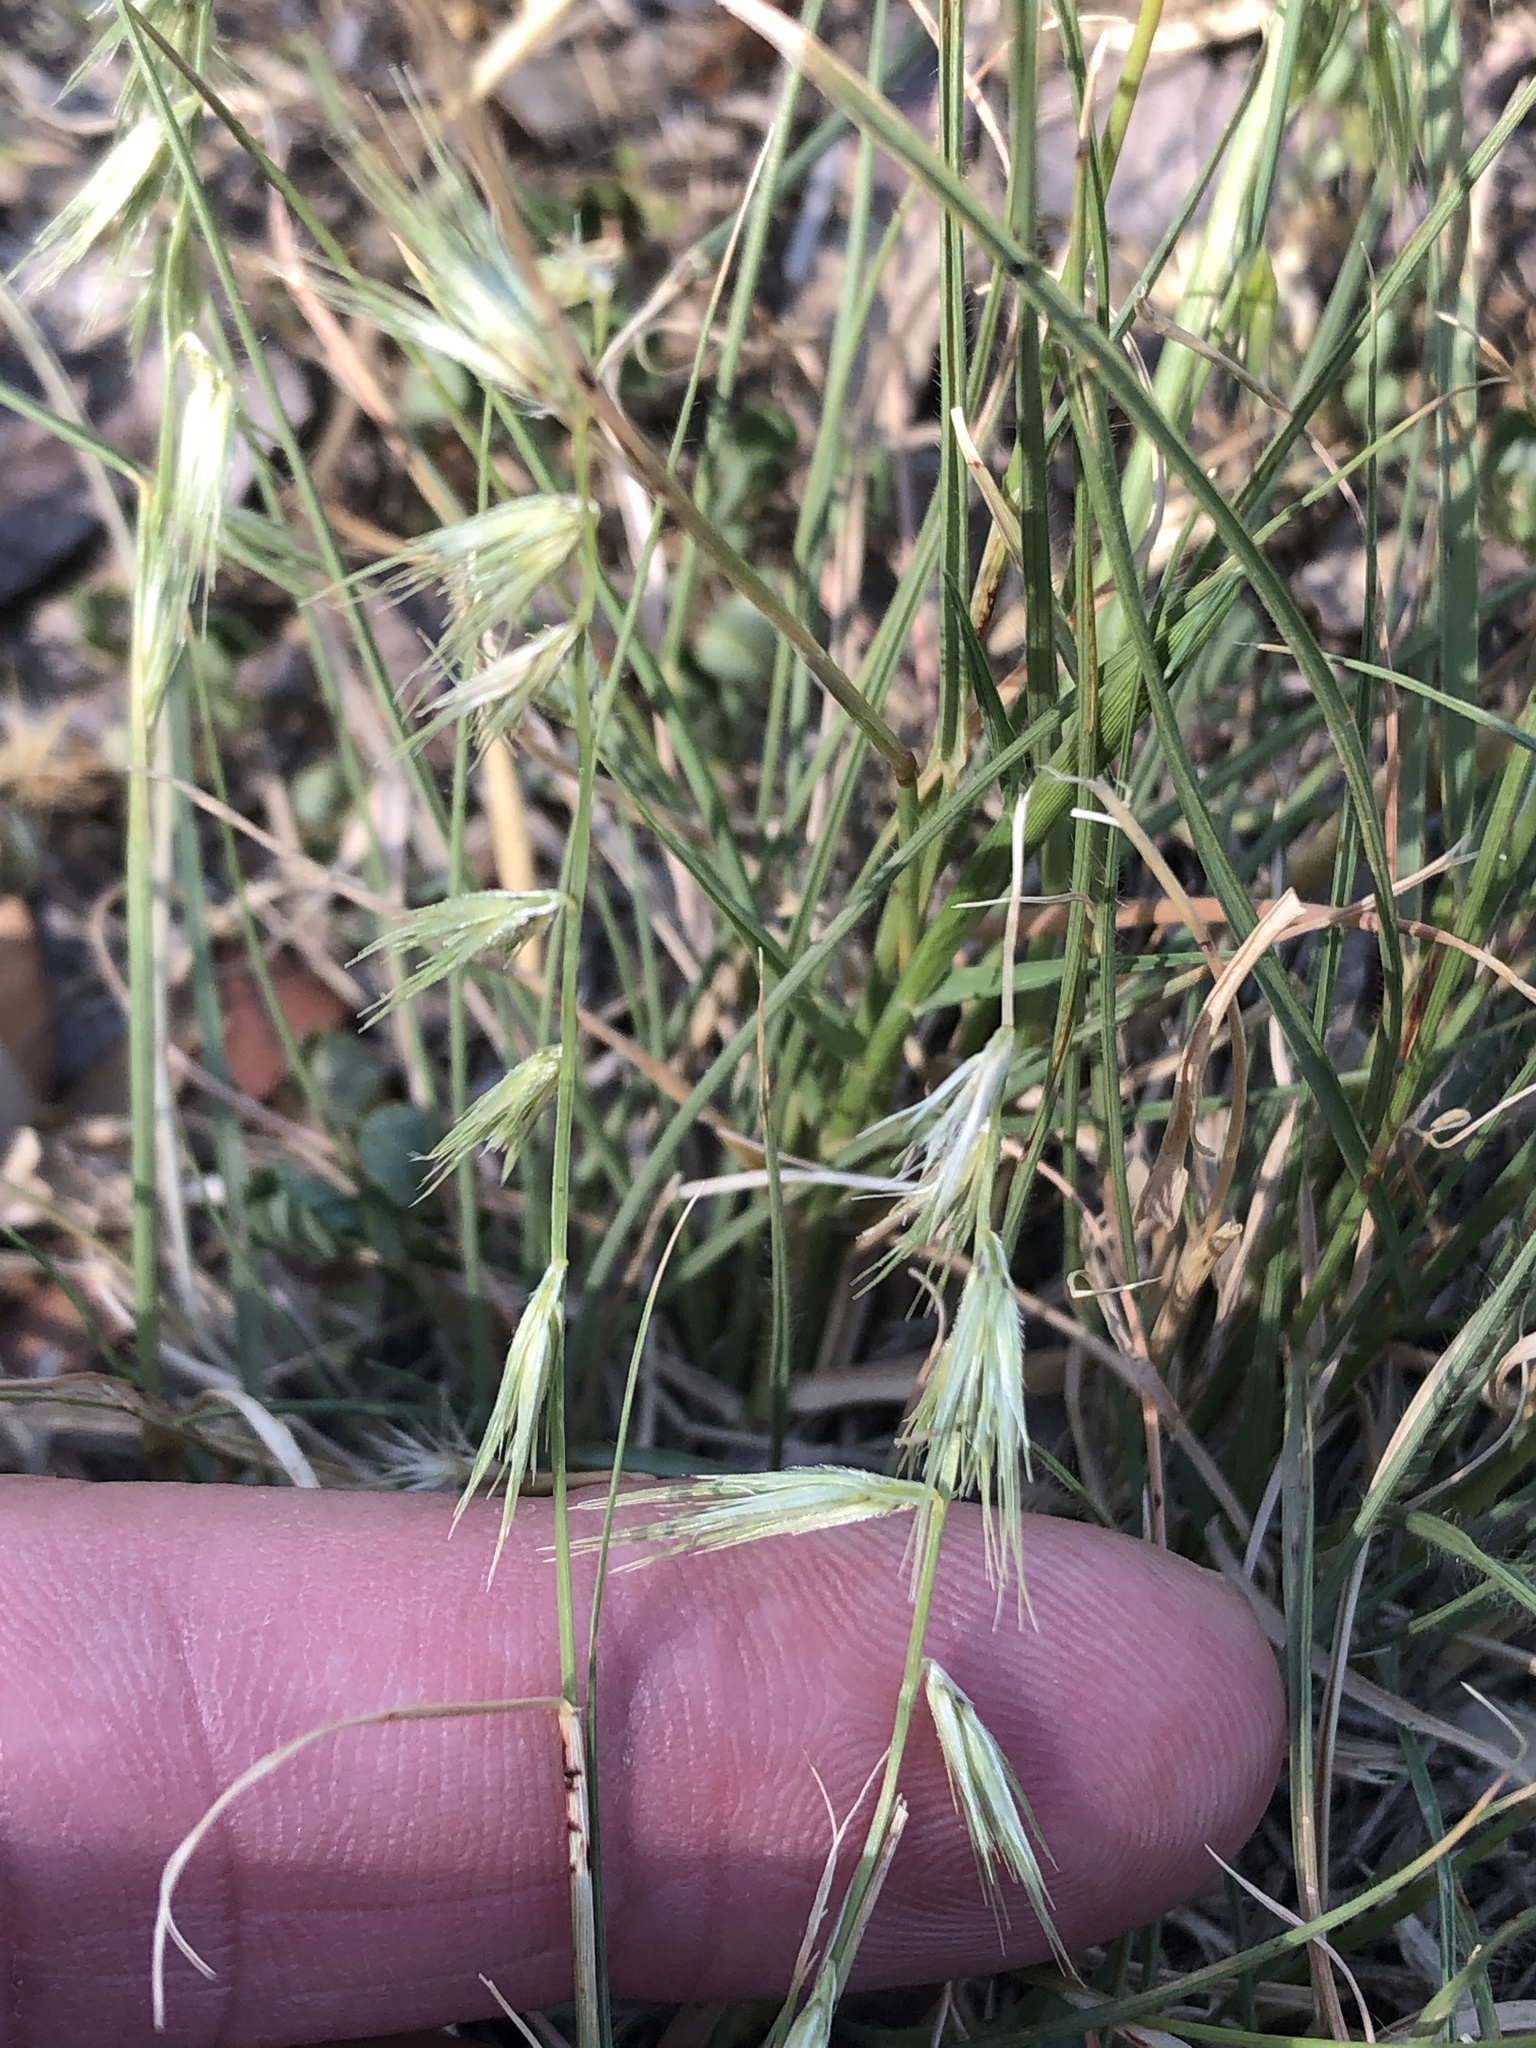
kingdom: Plantae
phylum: Tracheophyta
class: Liliopsida
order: Poales
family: Poaceae
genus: Bouteloua
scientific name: Bouteloua rigidiseta
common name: Texas grama
